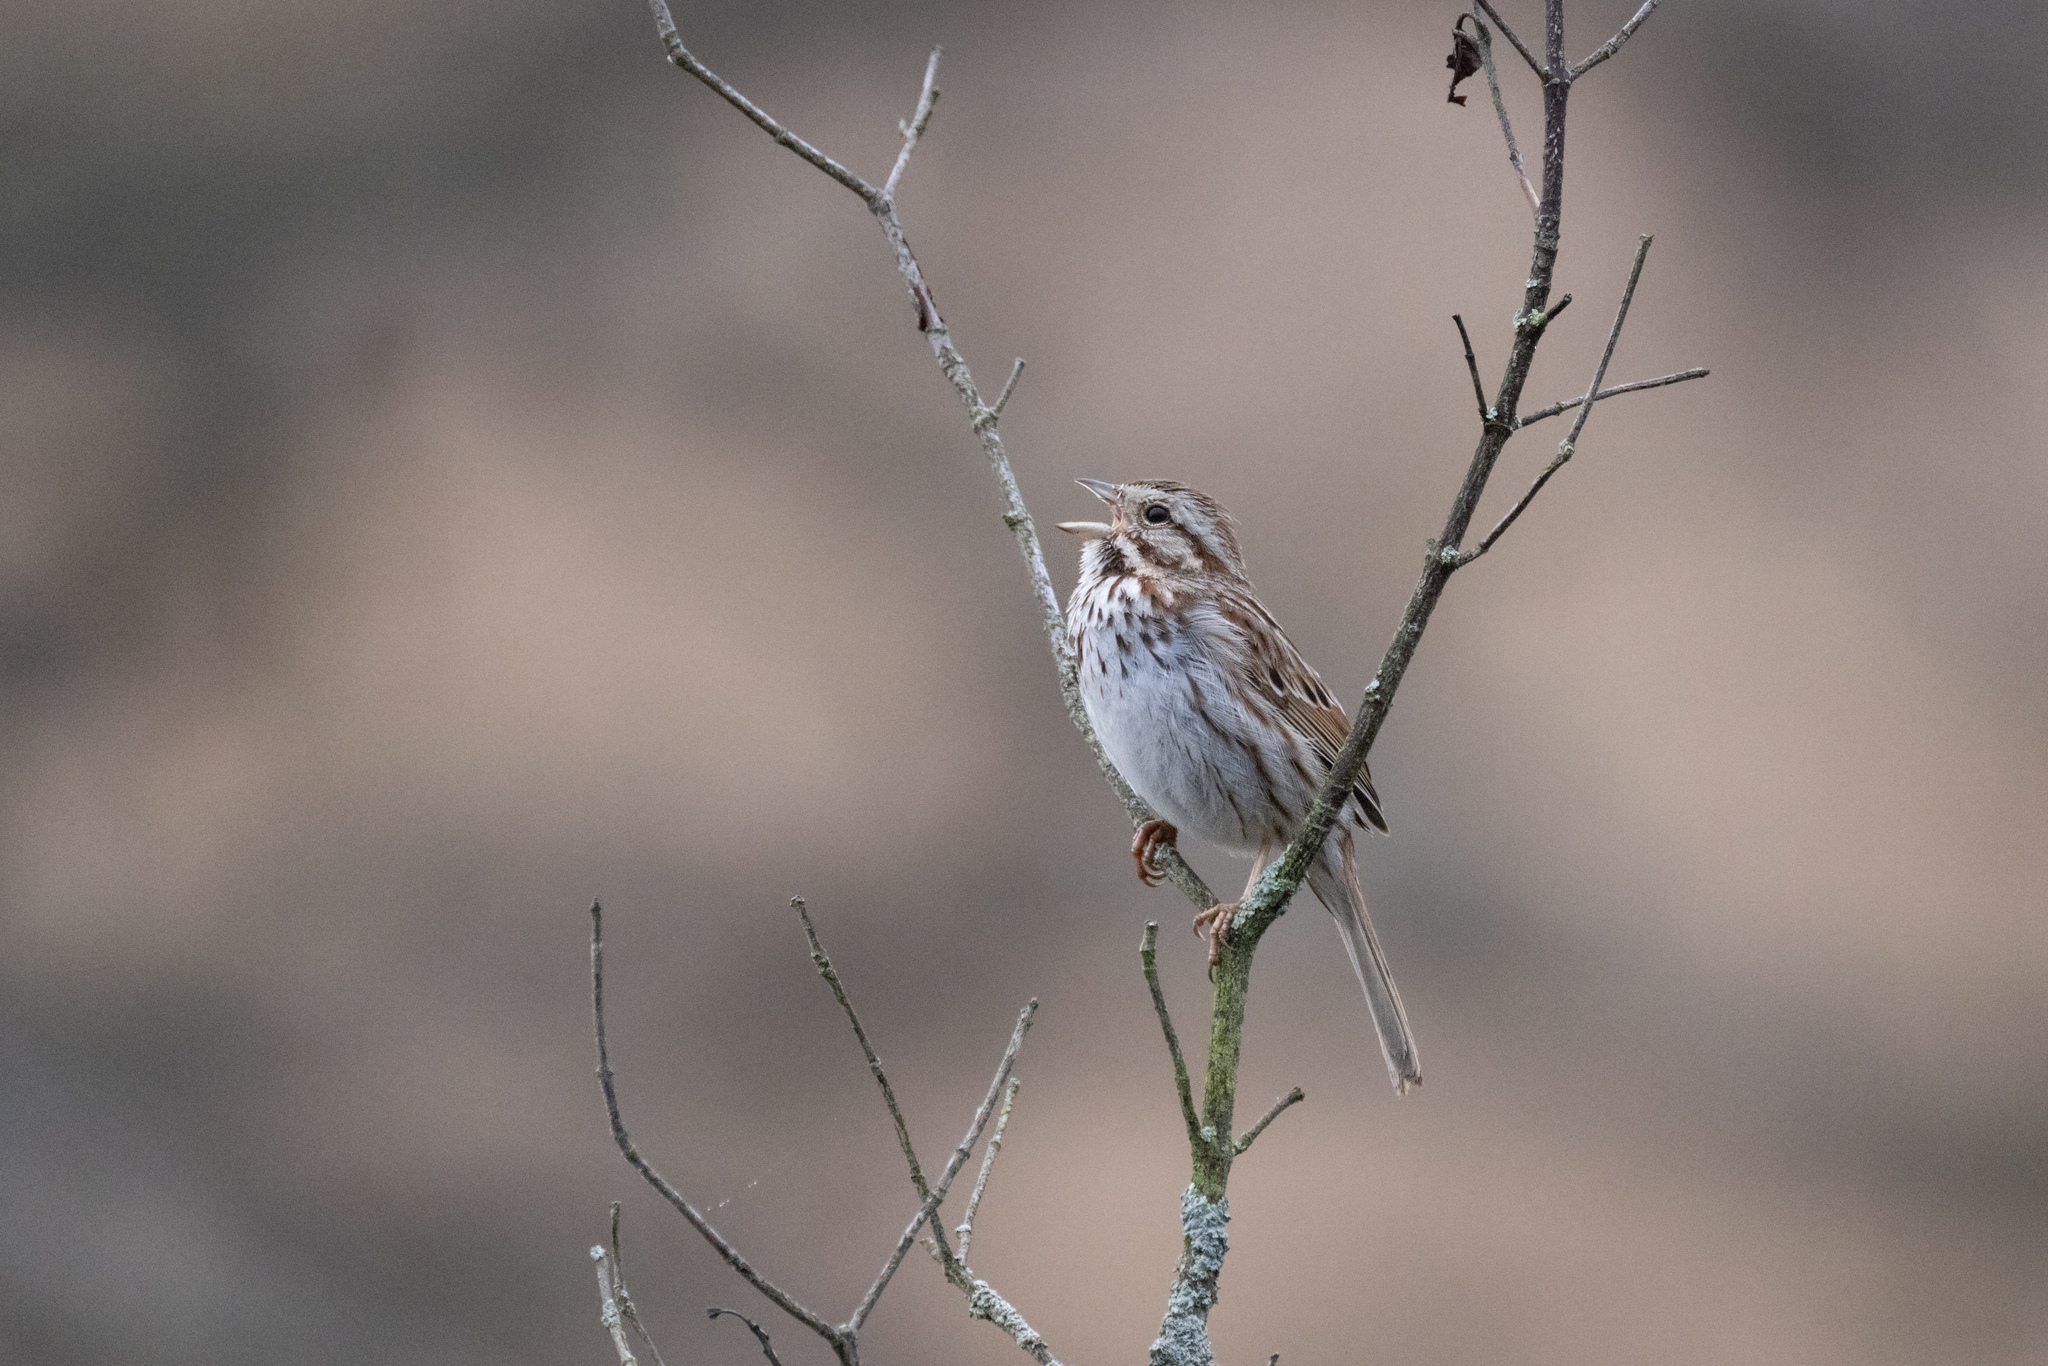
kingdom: Animalia
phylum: Chordata
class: Aves
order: Passeriformes
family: Passerellidae
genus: Melospiza
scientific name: Melospiza melodia
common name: Song sparrow
